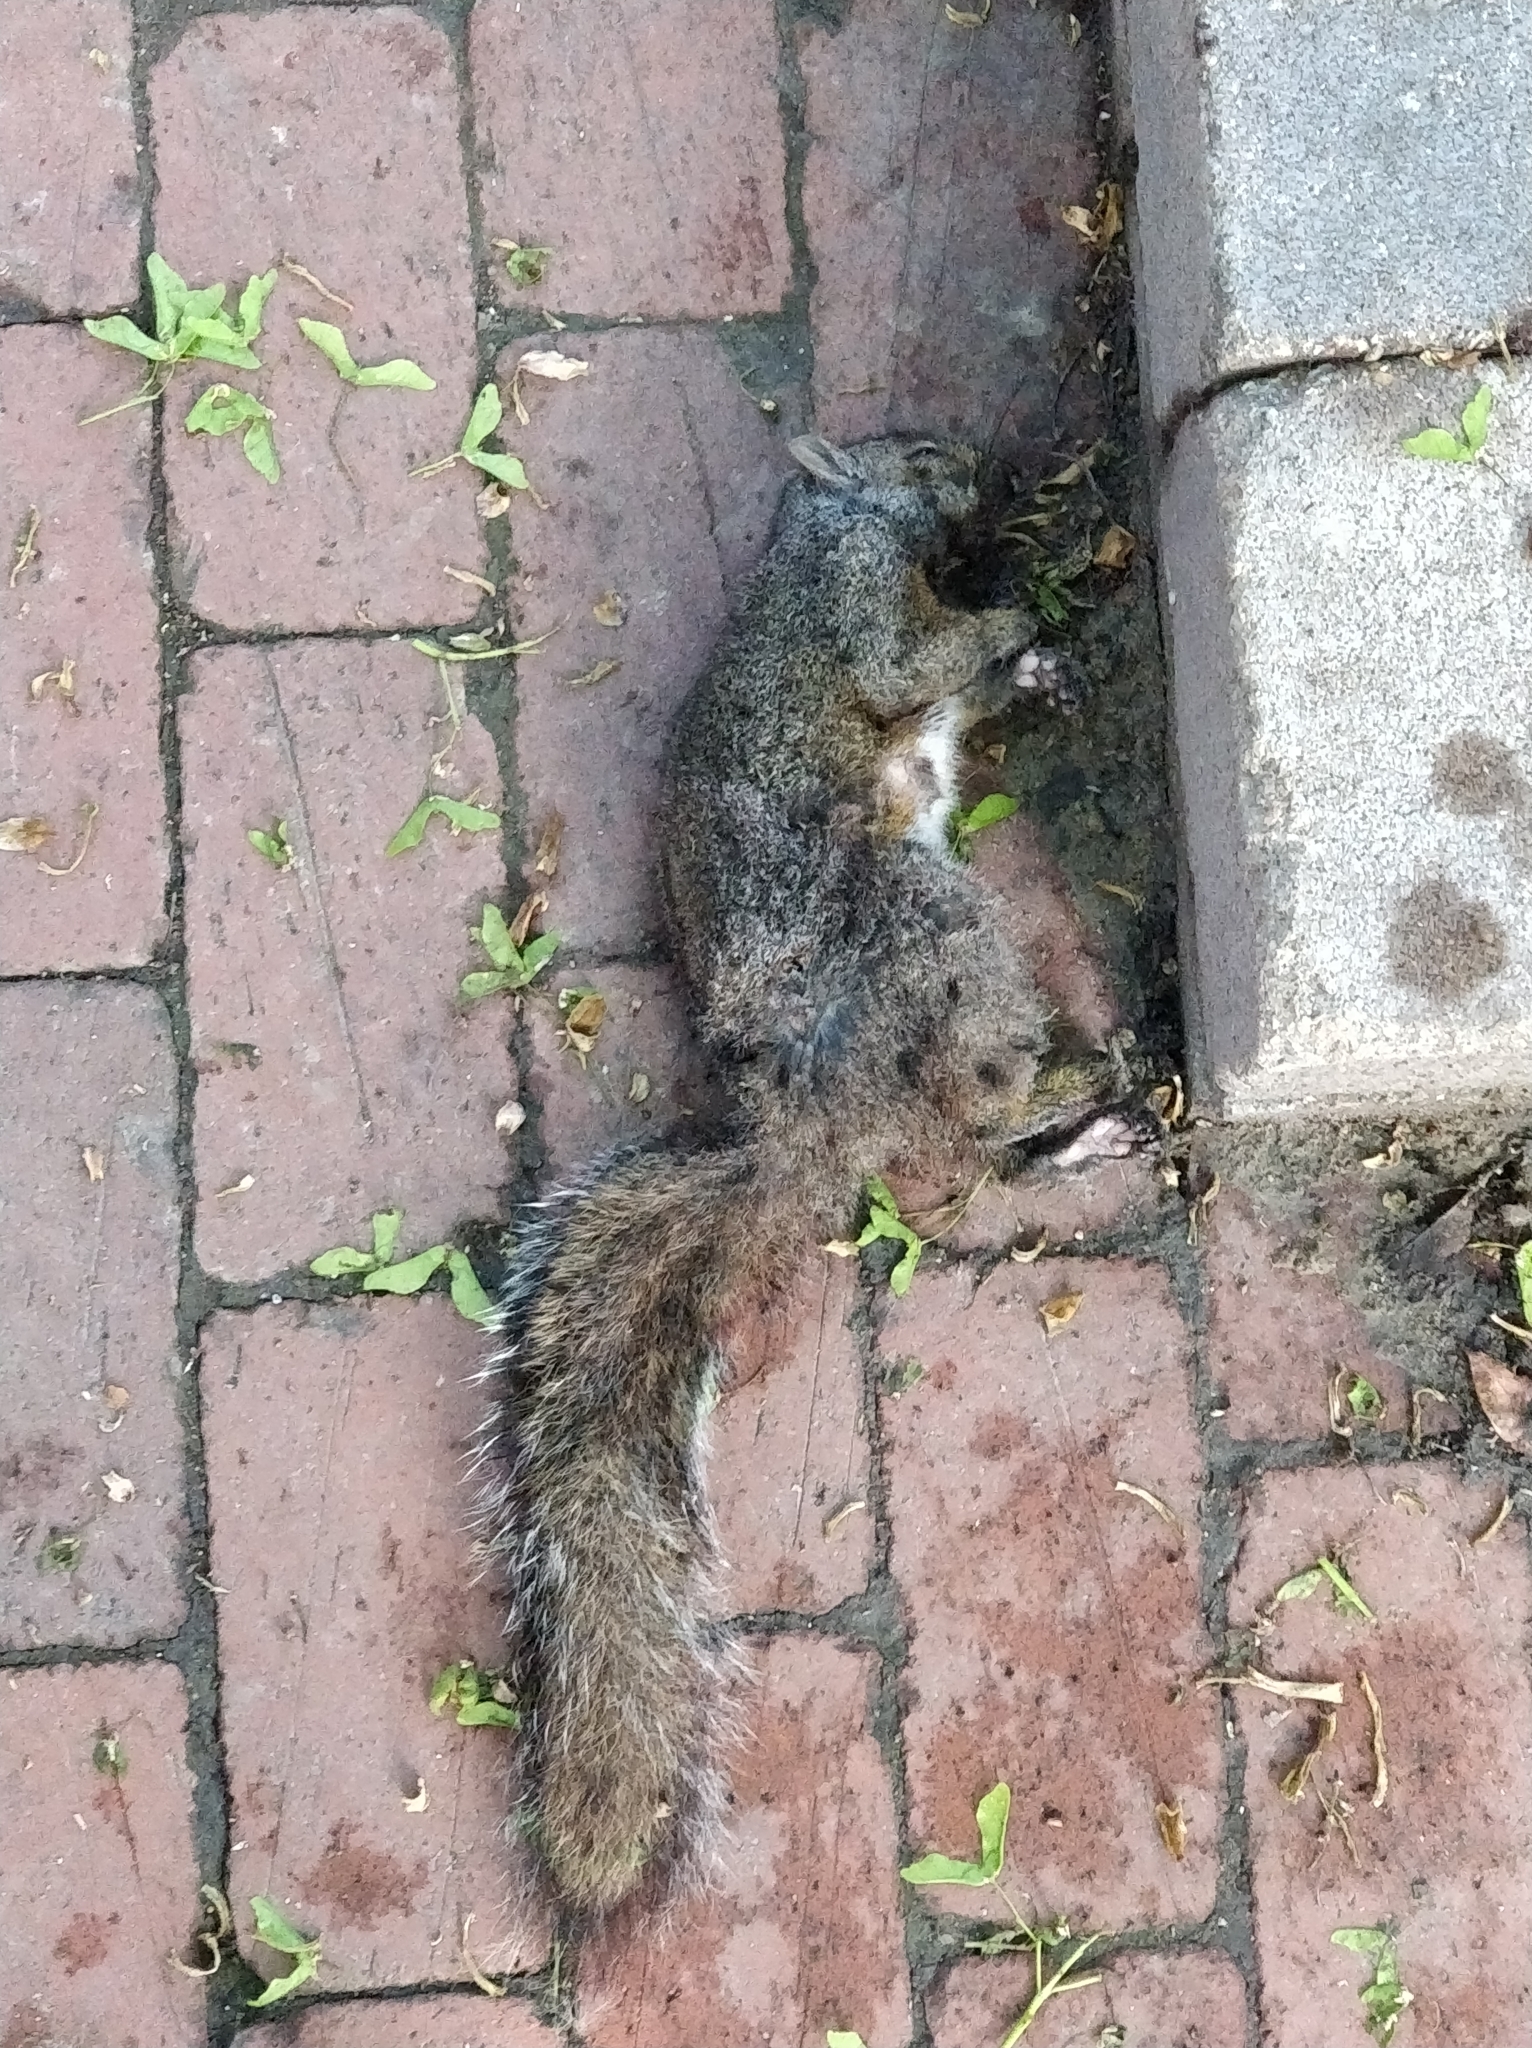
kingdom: Animalia
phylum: Chordata
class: Mammalia
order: Rodentia
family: Sciuridae
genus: Sciurus
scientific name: Sciurus carolinensis
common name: Eastern gray squirrel
